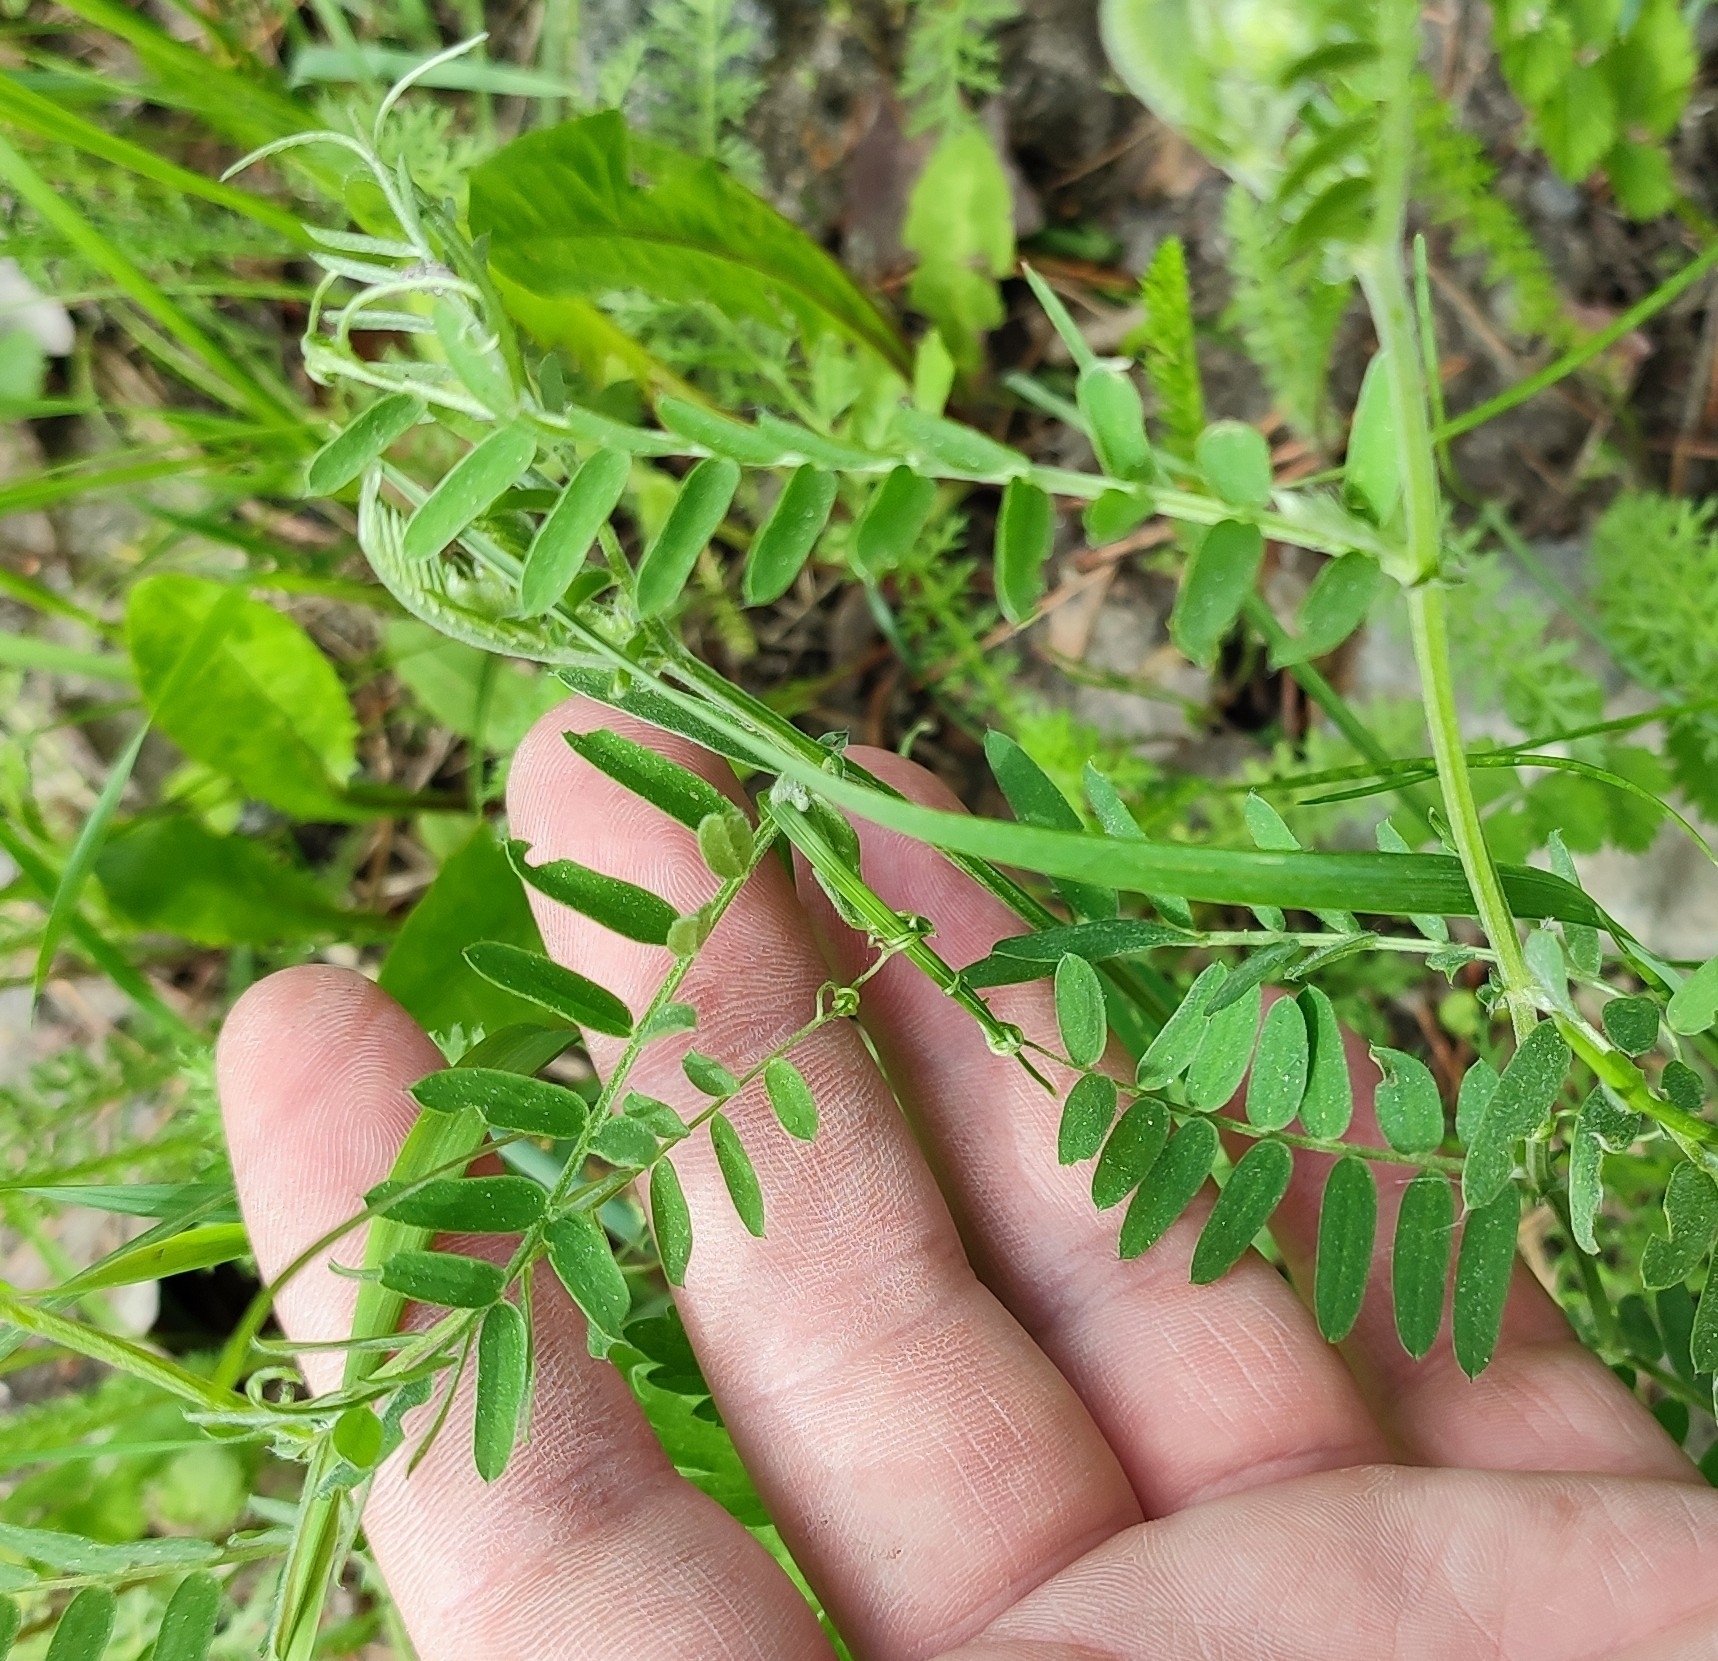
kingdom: Plantae
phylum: Tracheophyta
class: Magnoliopsida
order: Fabales
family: Fabaceae
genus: Vicia
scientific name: Vicia cracca
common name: Bird vetch
